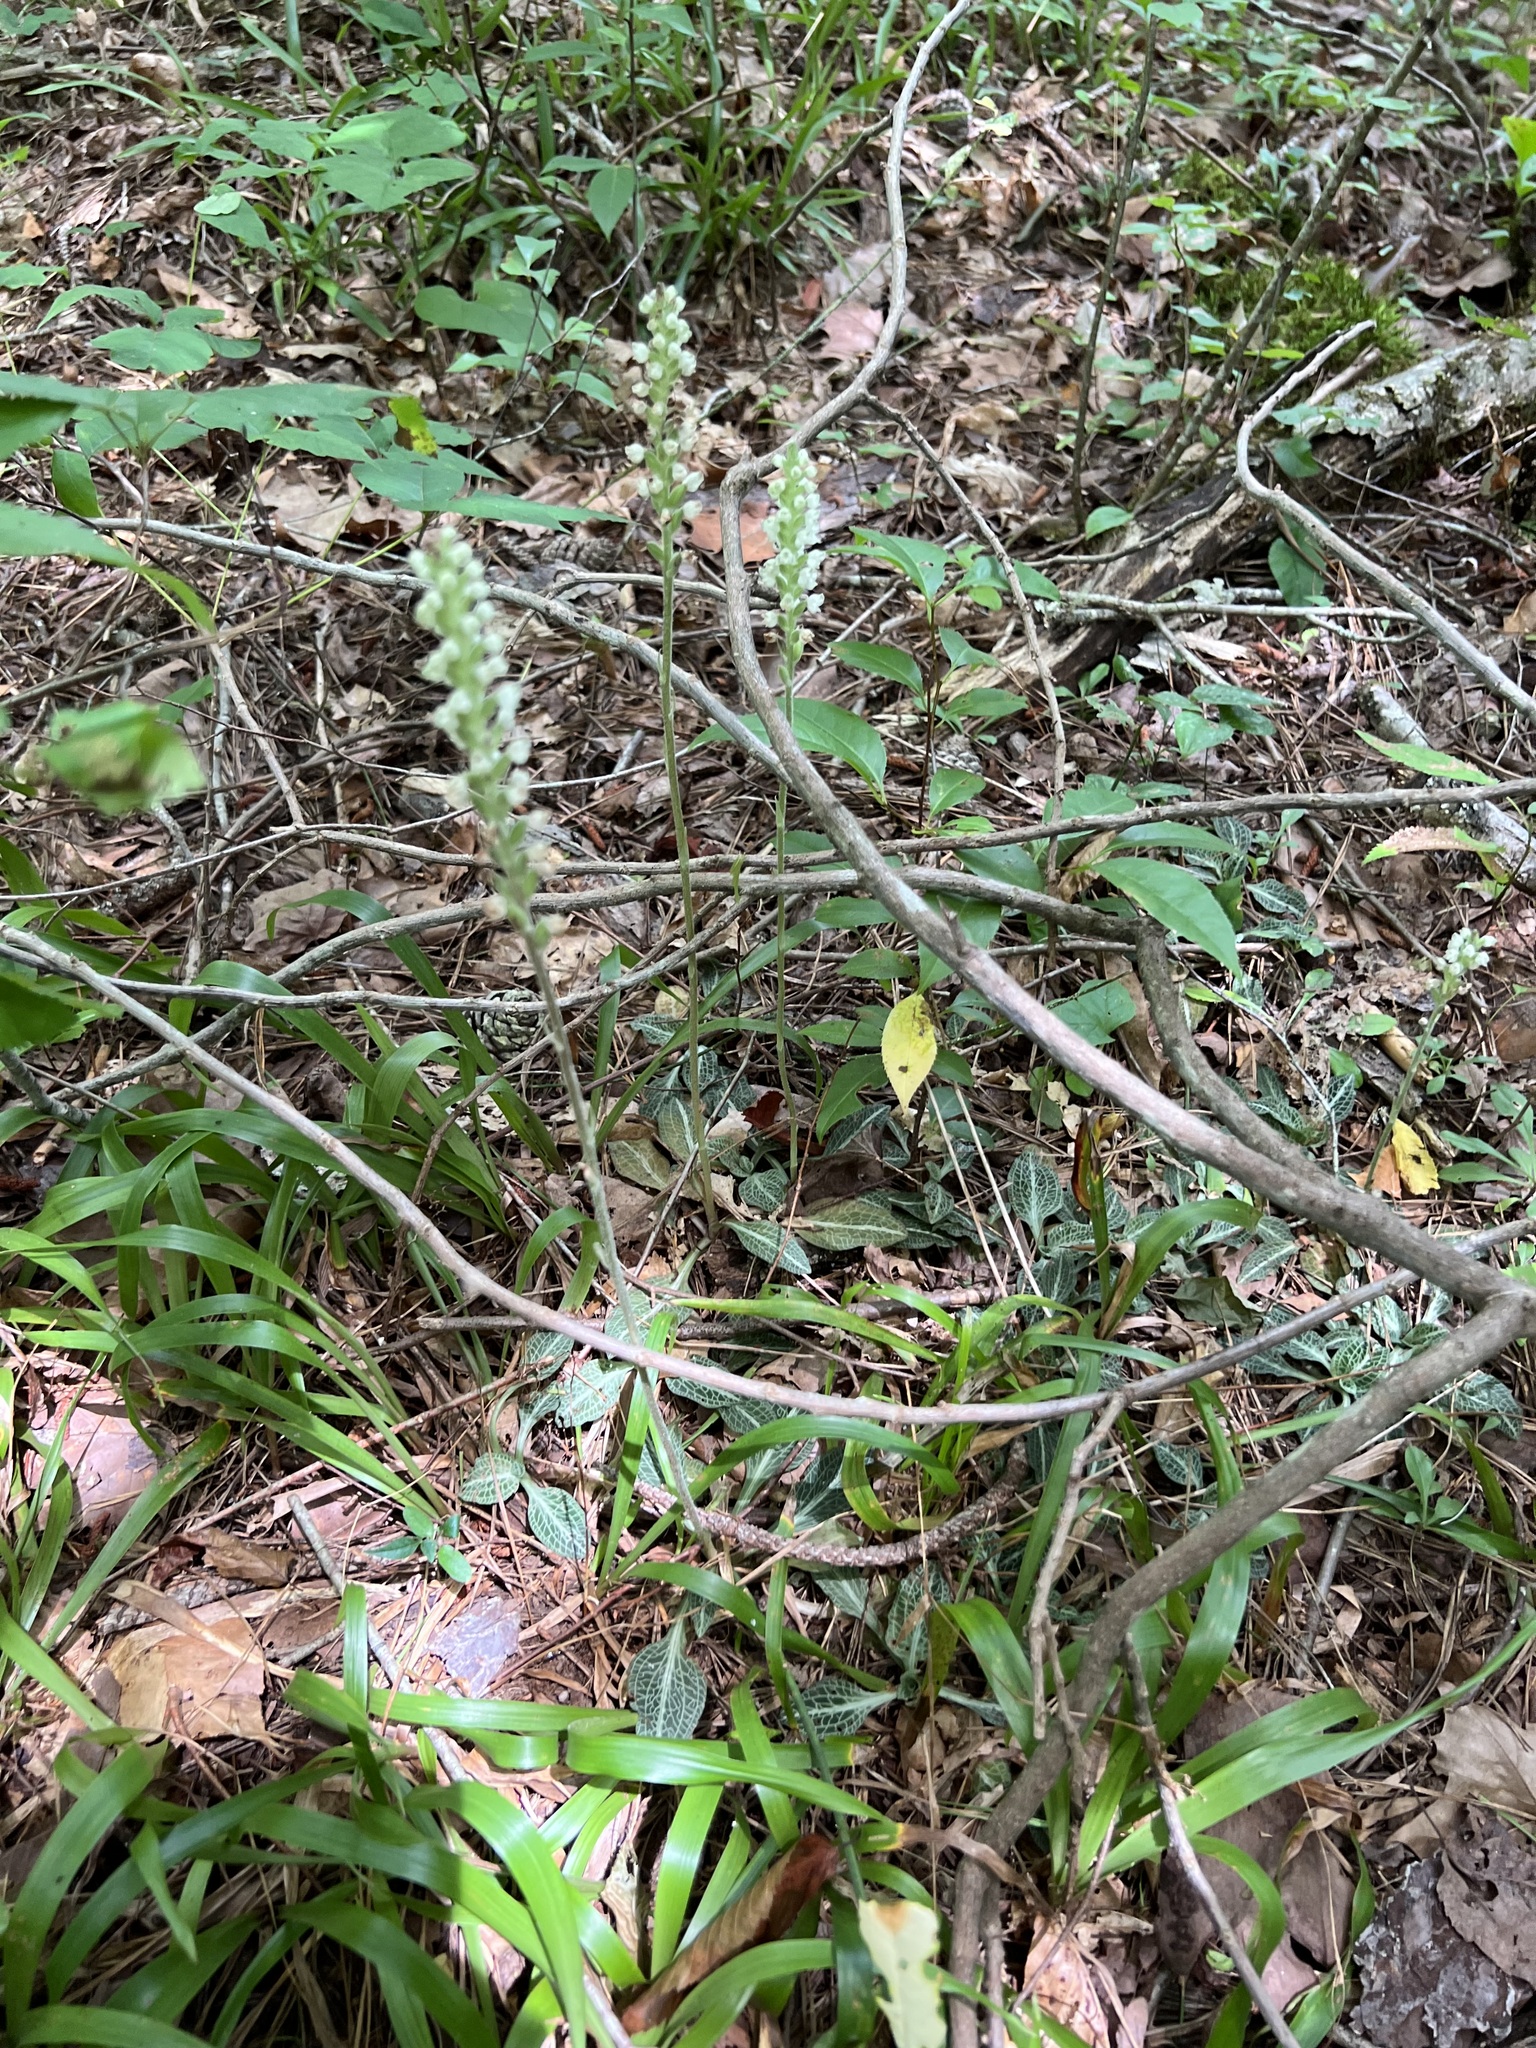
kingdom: Plantae
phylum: Tracheophyta
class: Liliopsida
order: Asparagales
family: Orchidaceae
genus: Goodyera
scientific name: Goodyera pubescens
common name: Downy rattlesnake-plantain
